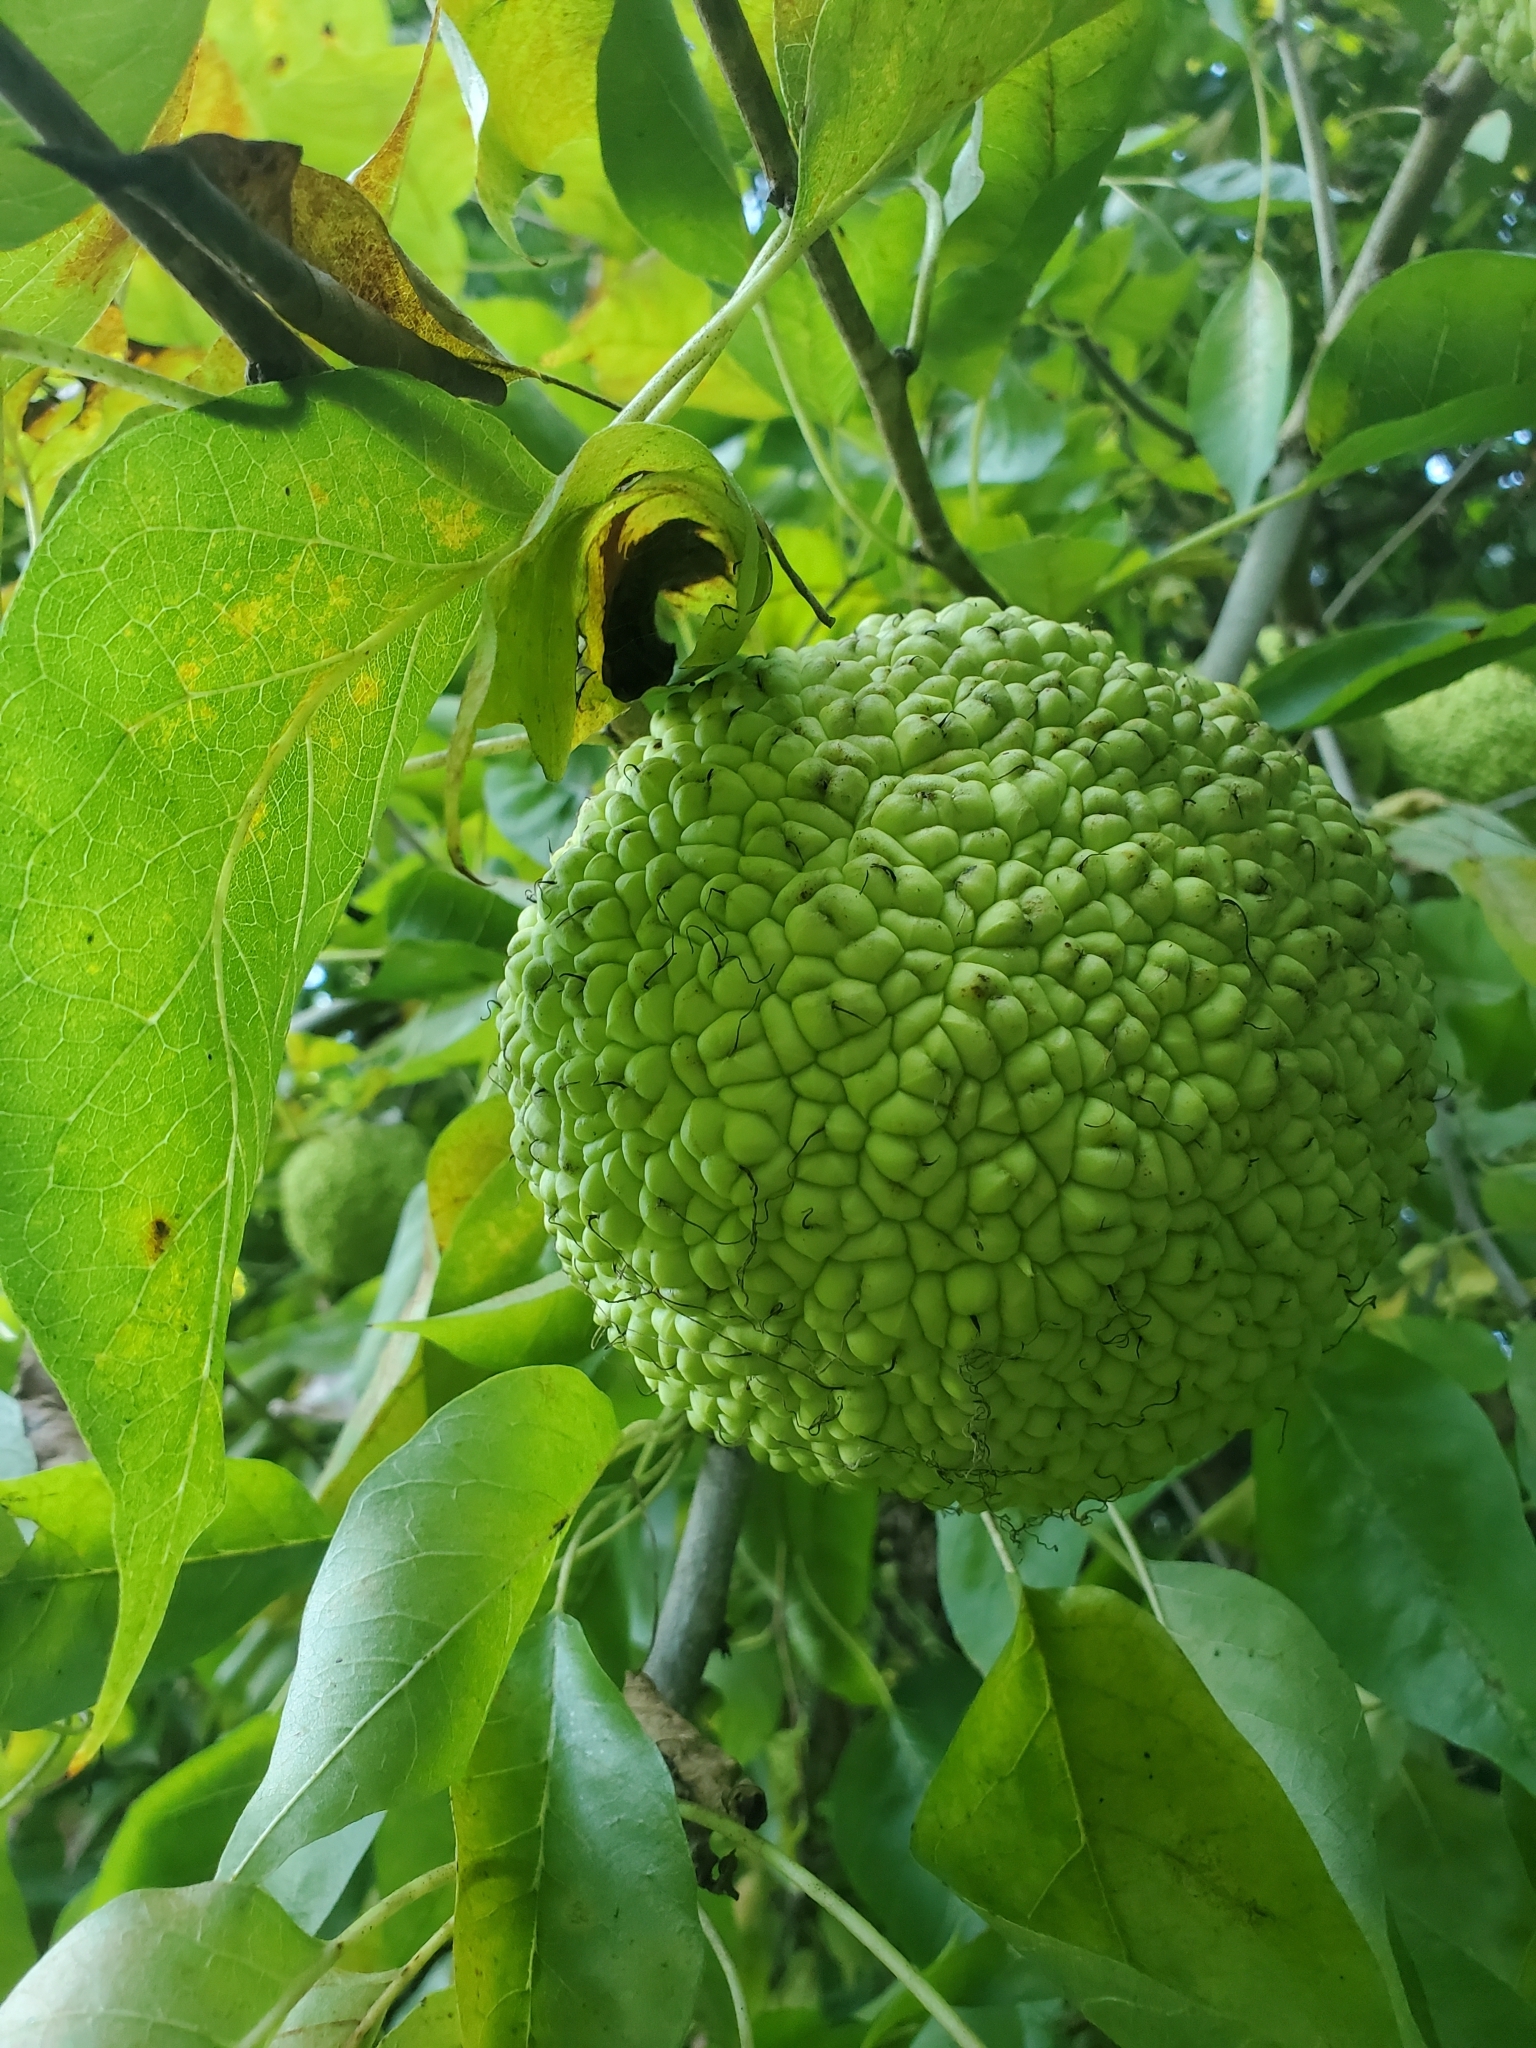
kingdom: Plantae
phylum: Tracheophyta
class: Magnoliopsida
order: Rosales
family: Moraceae
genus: Maclura
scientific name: Maclura pomifera
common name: Osage-orange
